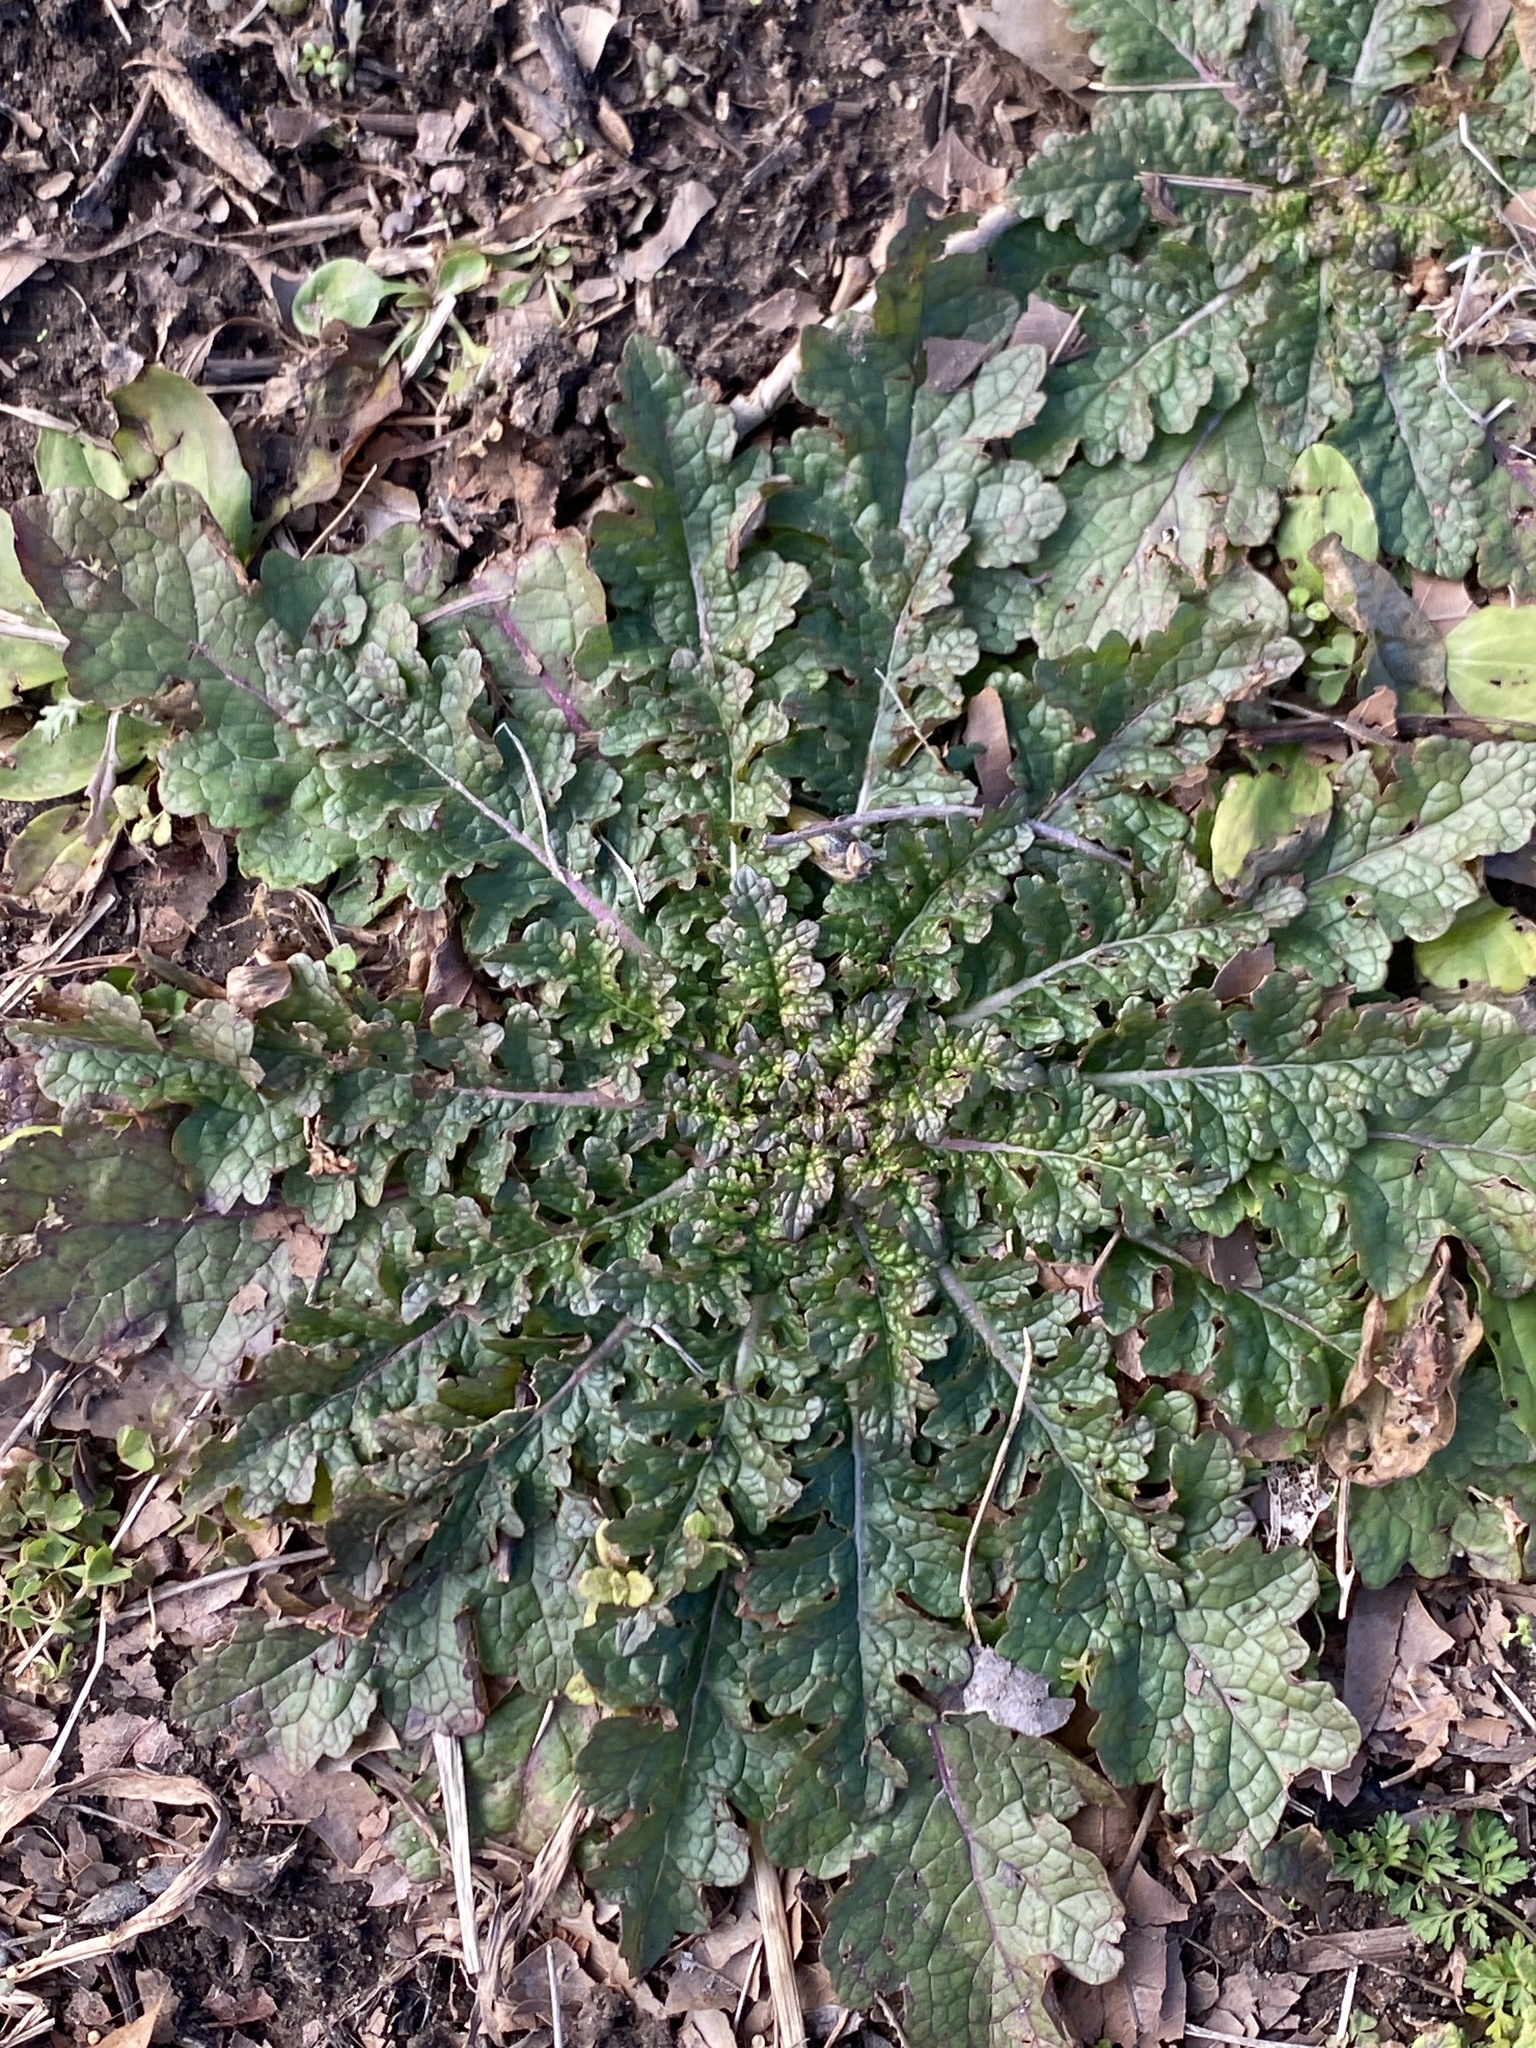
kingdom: Plantae
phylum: Tracheophyta
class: Magnoliopsida
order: Lamiales
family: Scrophulariaceae
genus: Verbascum
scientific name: Verbascum blattaria
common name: Moth mullein
